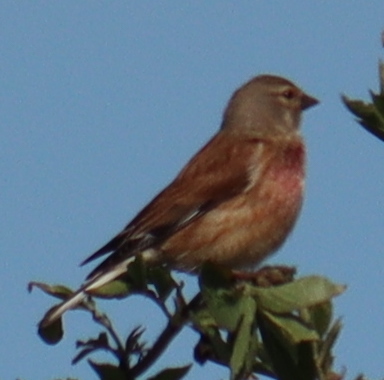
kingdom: Animalia
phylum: Chordata
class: Aves
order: Passeriformes
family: Fringillidae
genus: Linaria
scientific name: Linaria cannabina
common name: Common linnet
